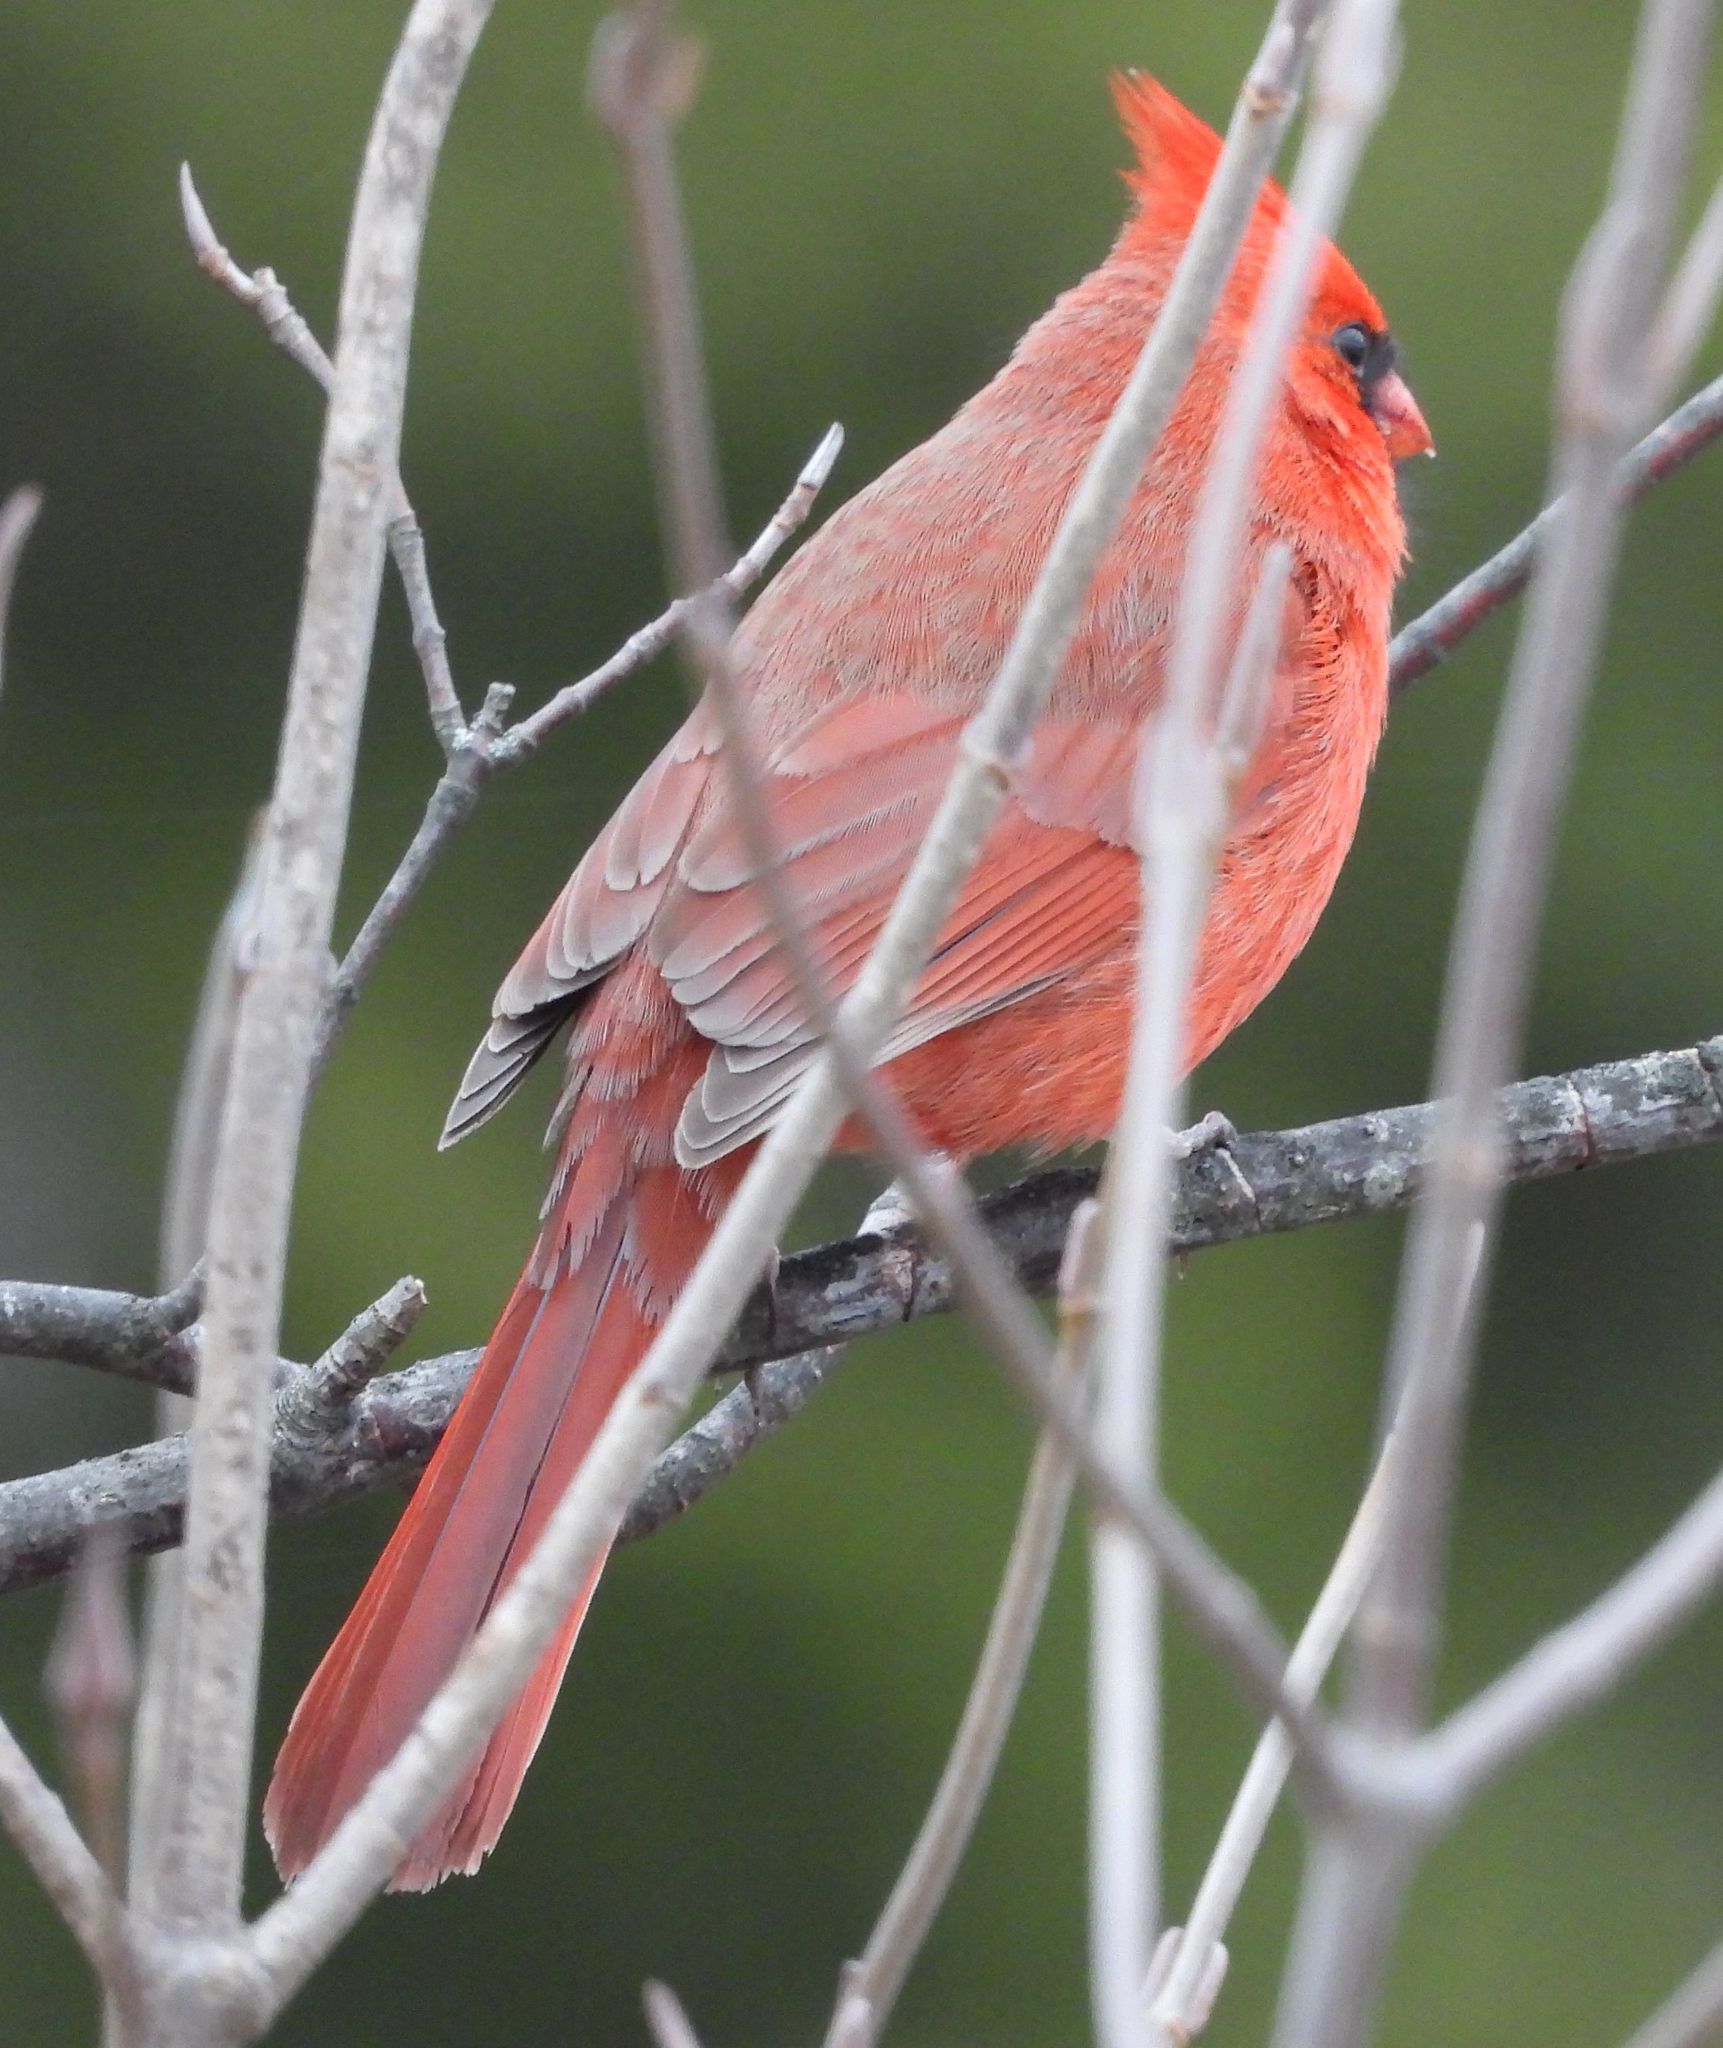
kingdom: Animalia
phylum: Chordata
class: Aves
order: Passeriformes
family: Cardinalidae
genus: Cardinalis
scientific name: Cardinalis cardinalis
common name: Northern cardinal
